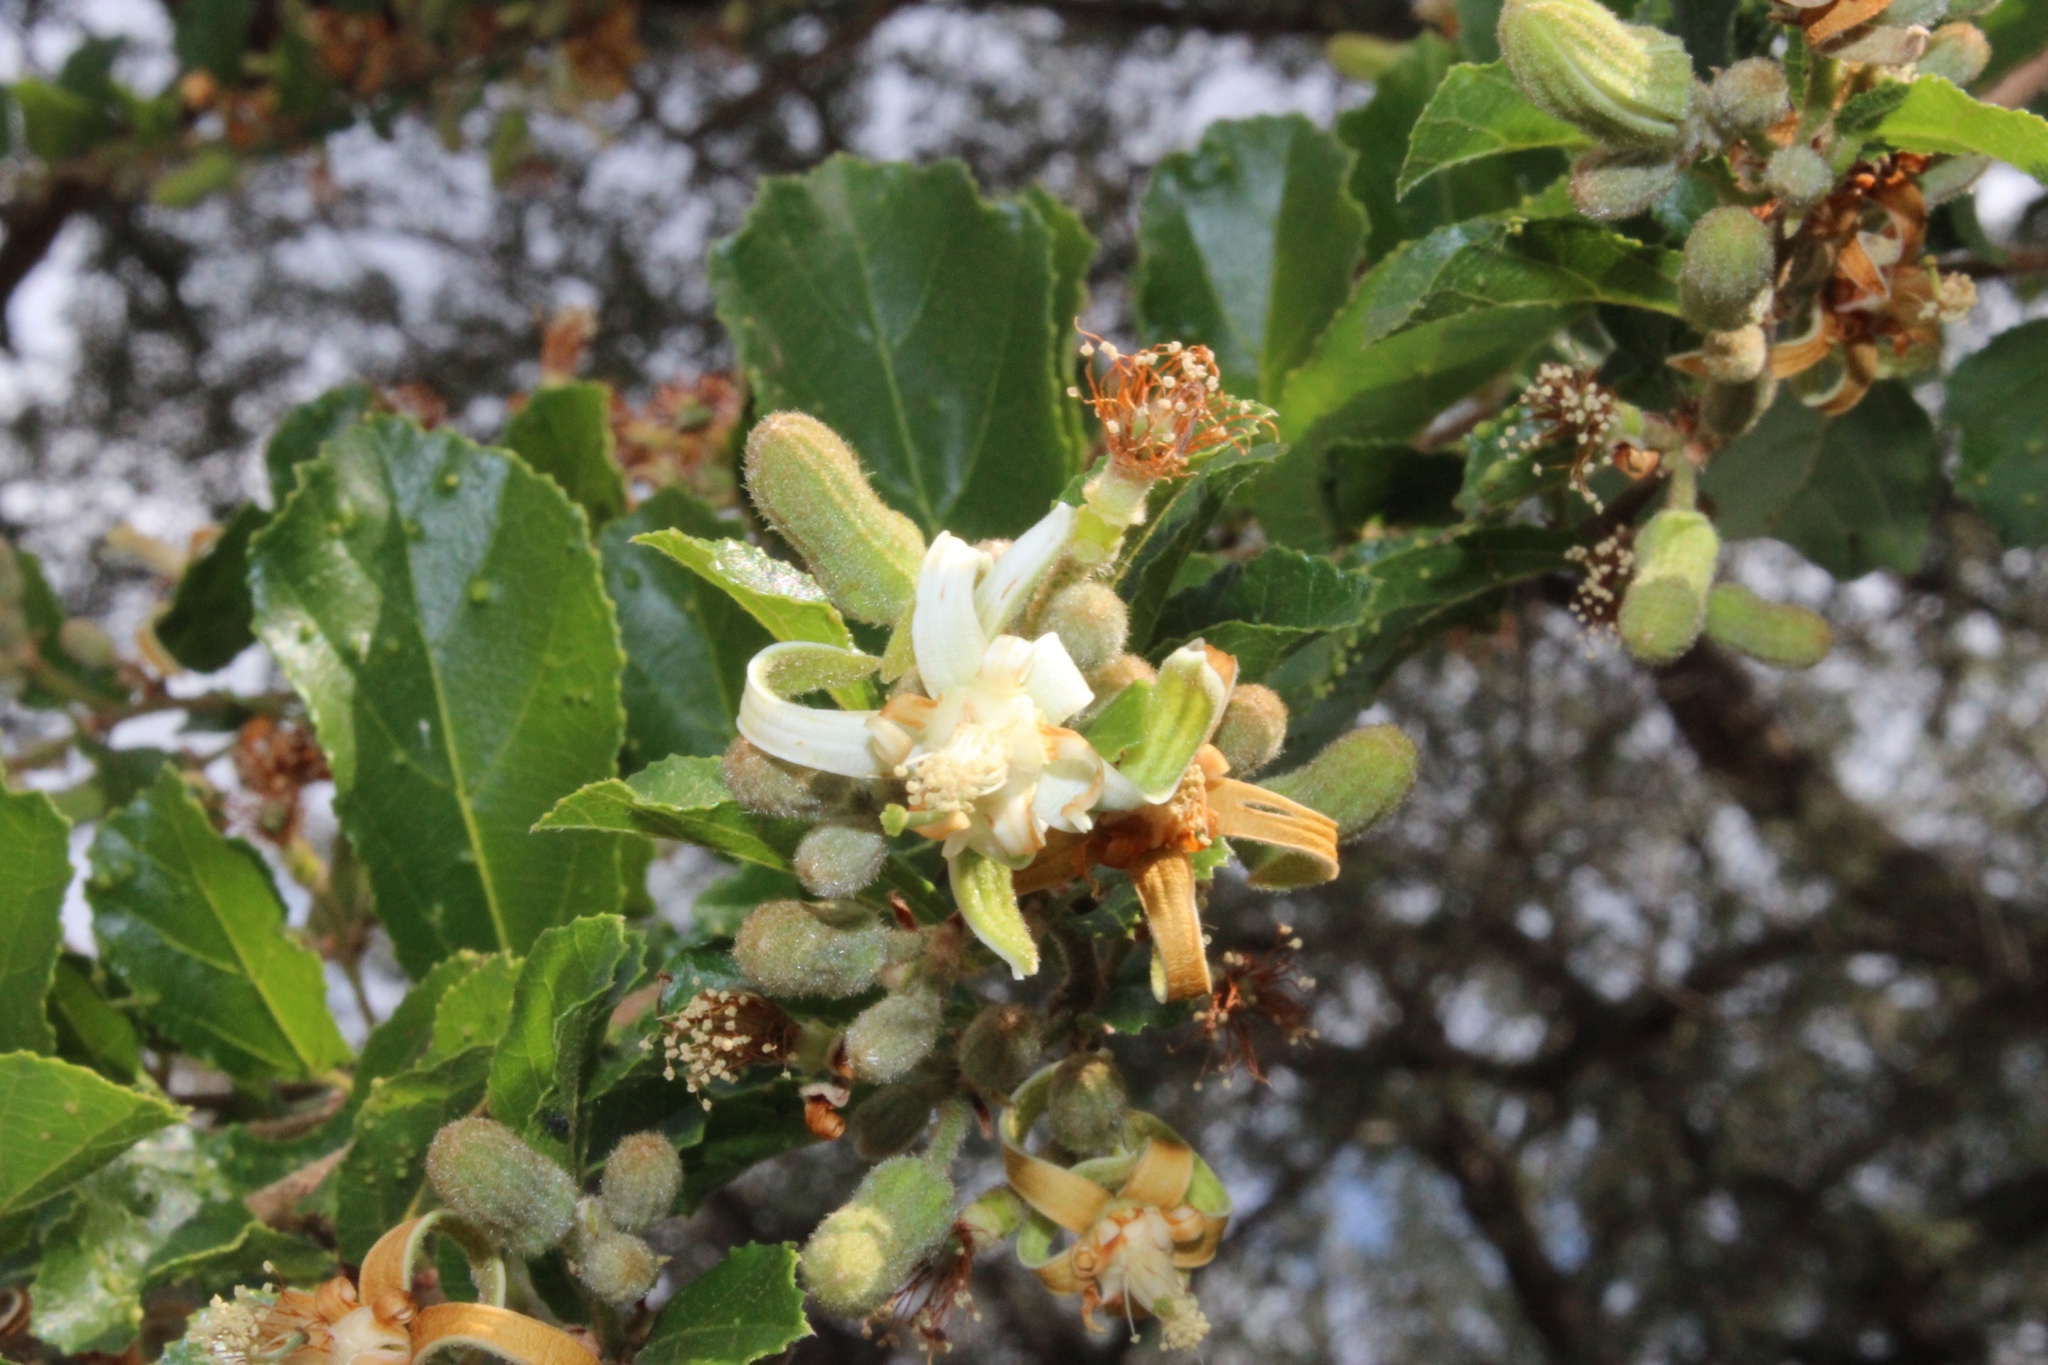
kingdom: Plantae
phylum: Tracheophyta
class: Magnoliopsida
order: Malvales
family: Malvaceae
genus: Grewia
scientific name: Grewia sulcata
